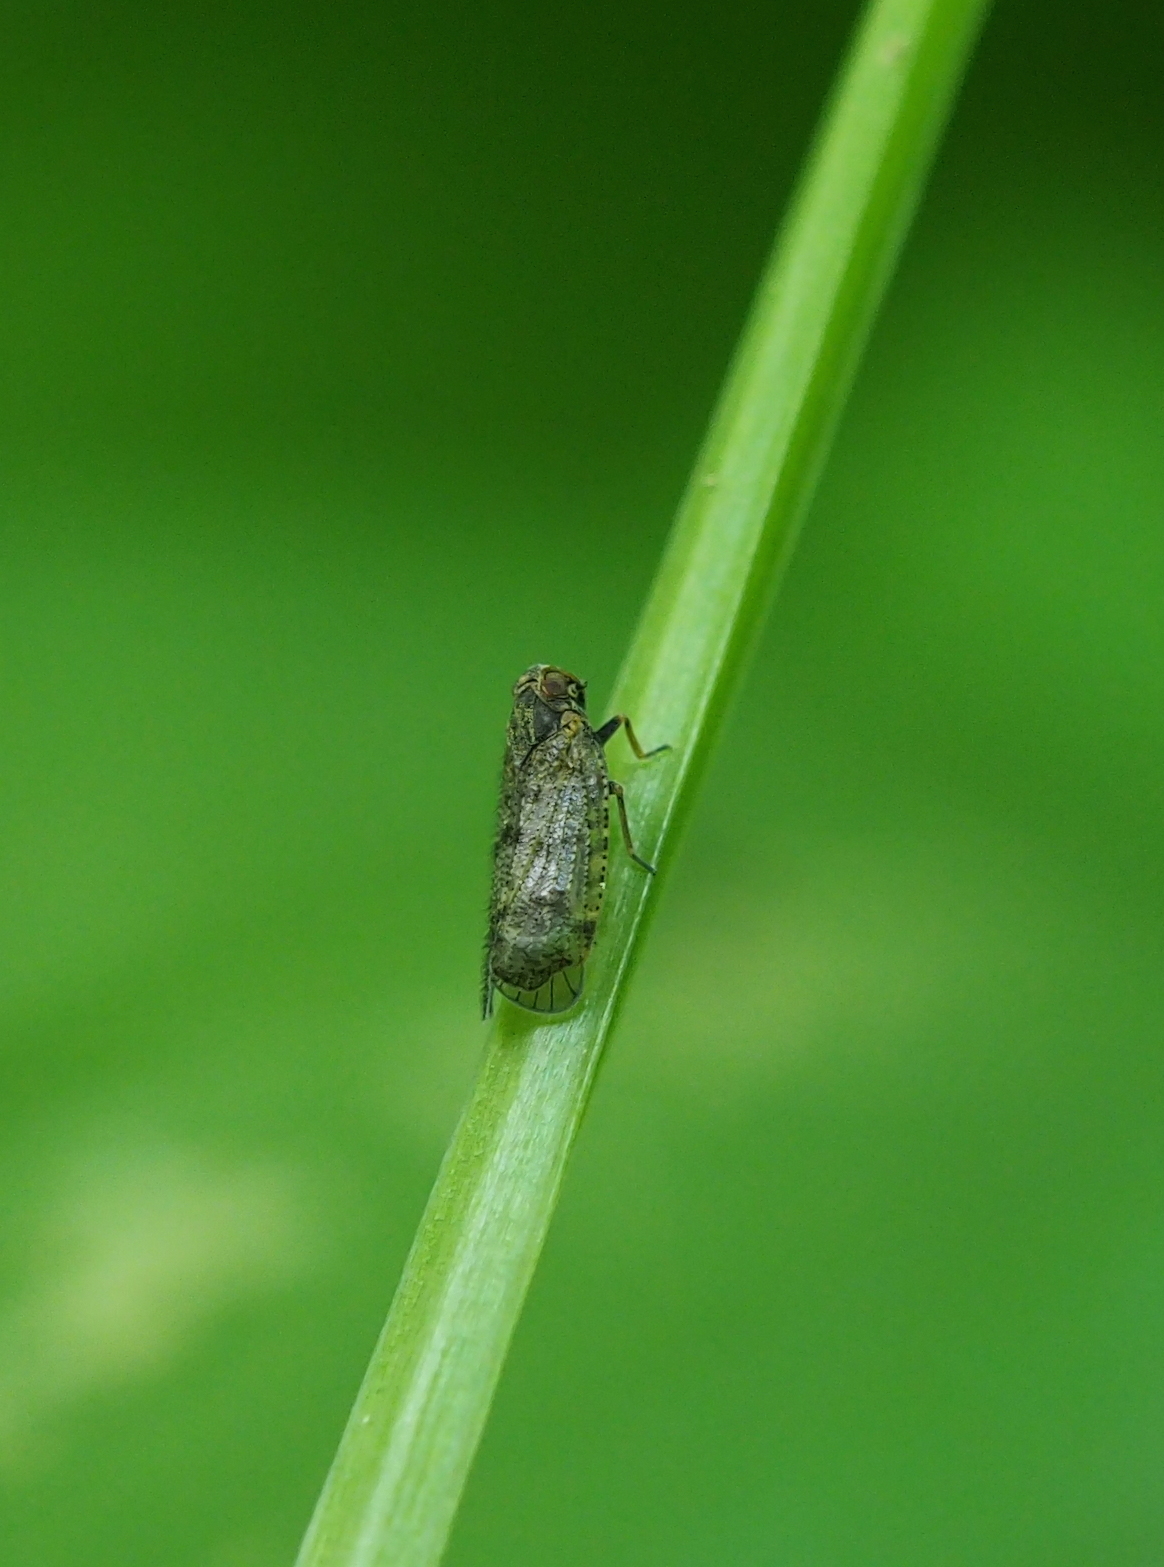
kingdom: Animalia
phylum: Arthropoda
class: Insecta
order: Hemiptera
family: Cixiidae
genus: Cixius
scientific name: Cixius
